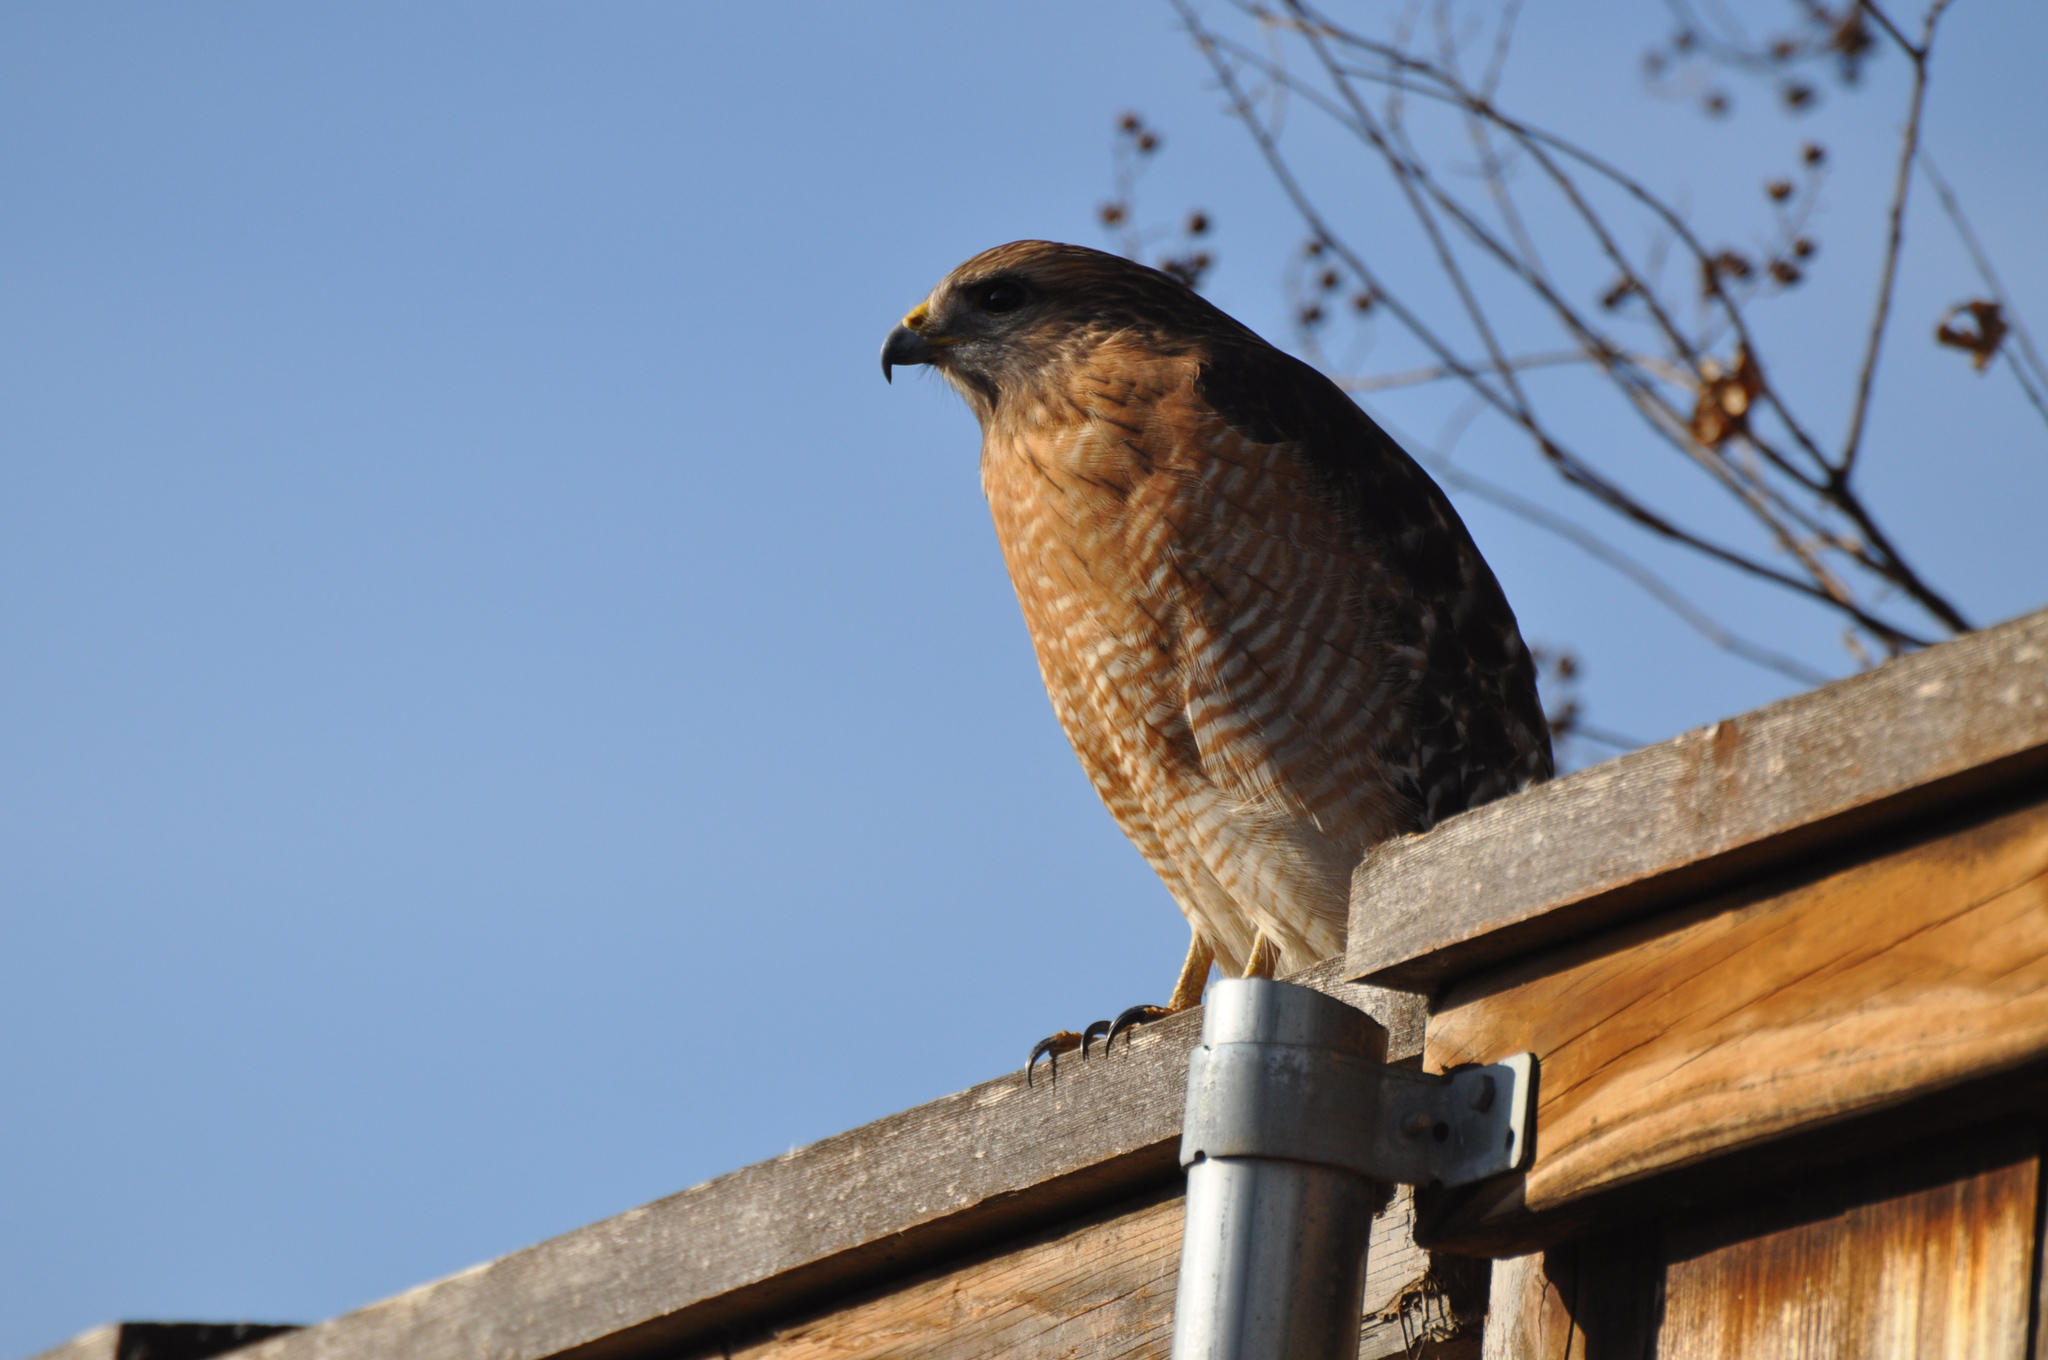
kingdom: Animalia
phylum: Chordata
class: Aves
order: Accipitriformes
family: Accipitridae
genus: Buteo
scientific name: Buteo lineatus
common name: Red-shouldered hawk
